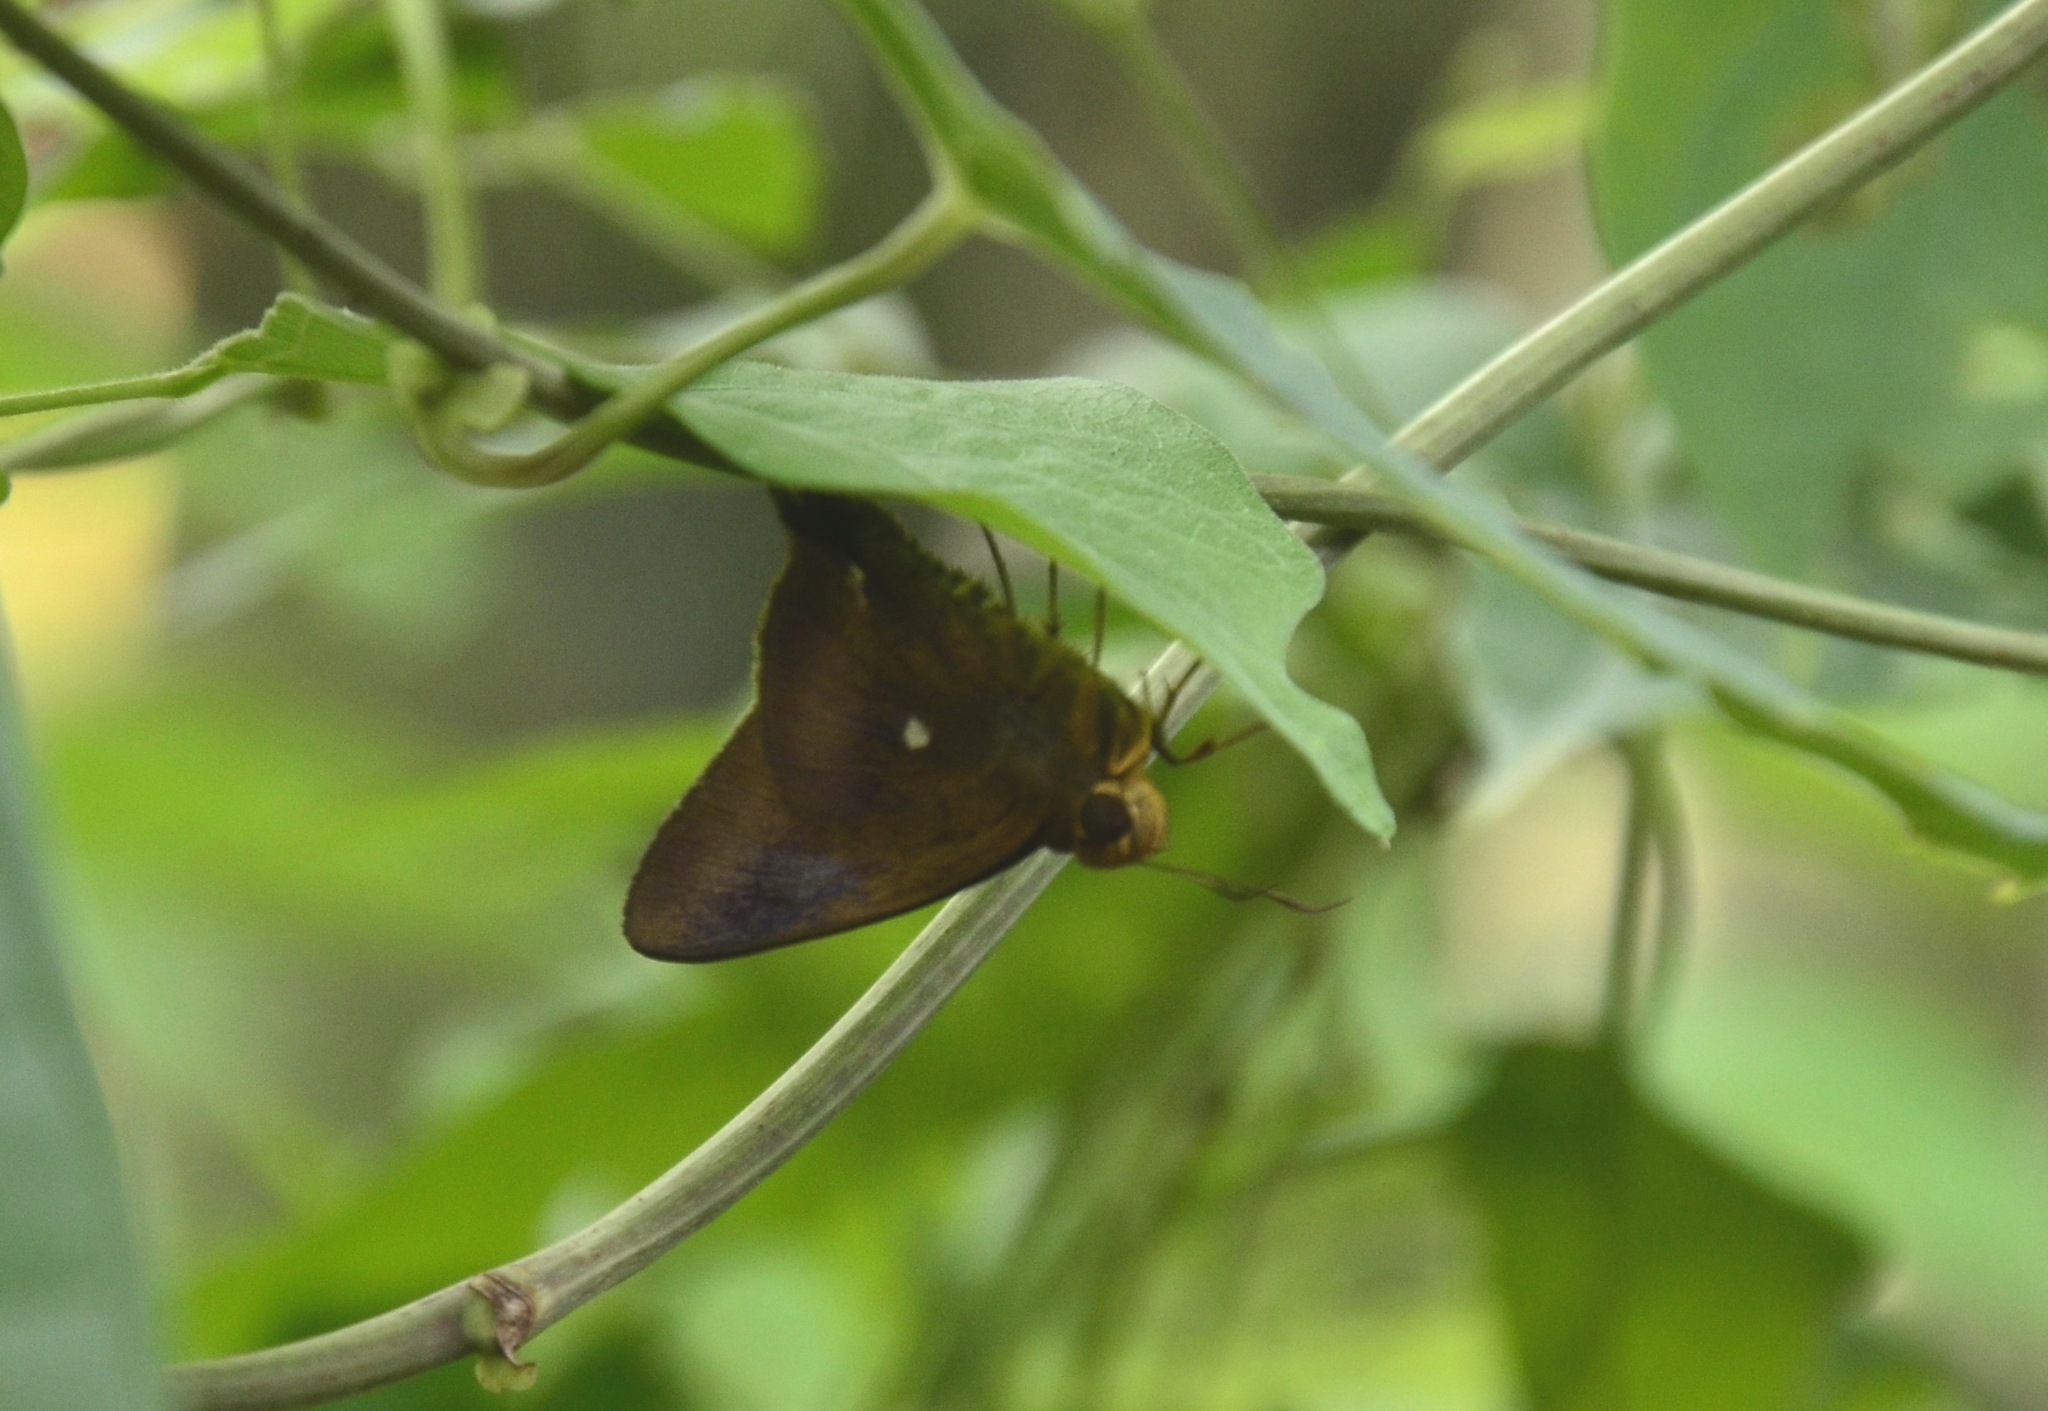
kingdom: Animalia
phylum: Arthropoda
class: Insecta
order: Lepidoptera
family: Hesperiidae
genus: Hasora
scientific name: Hasora badra
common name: Common awl
